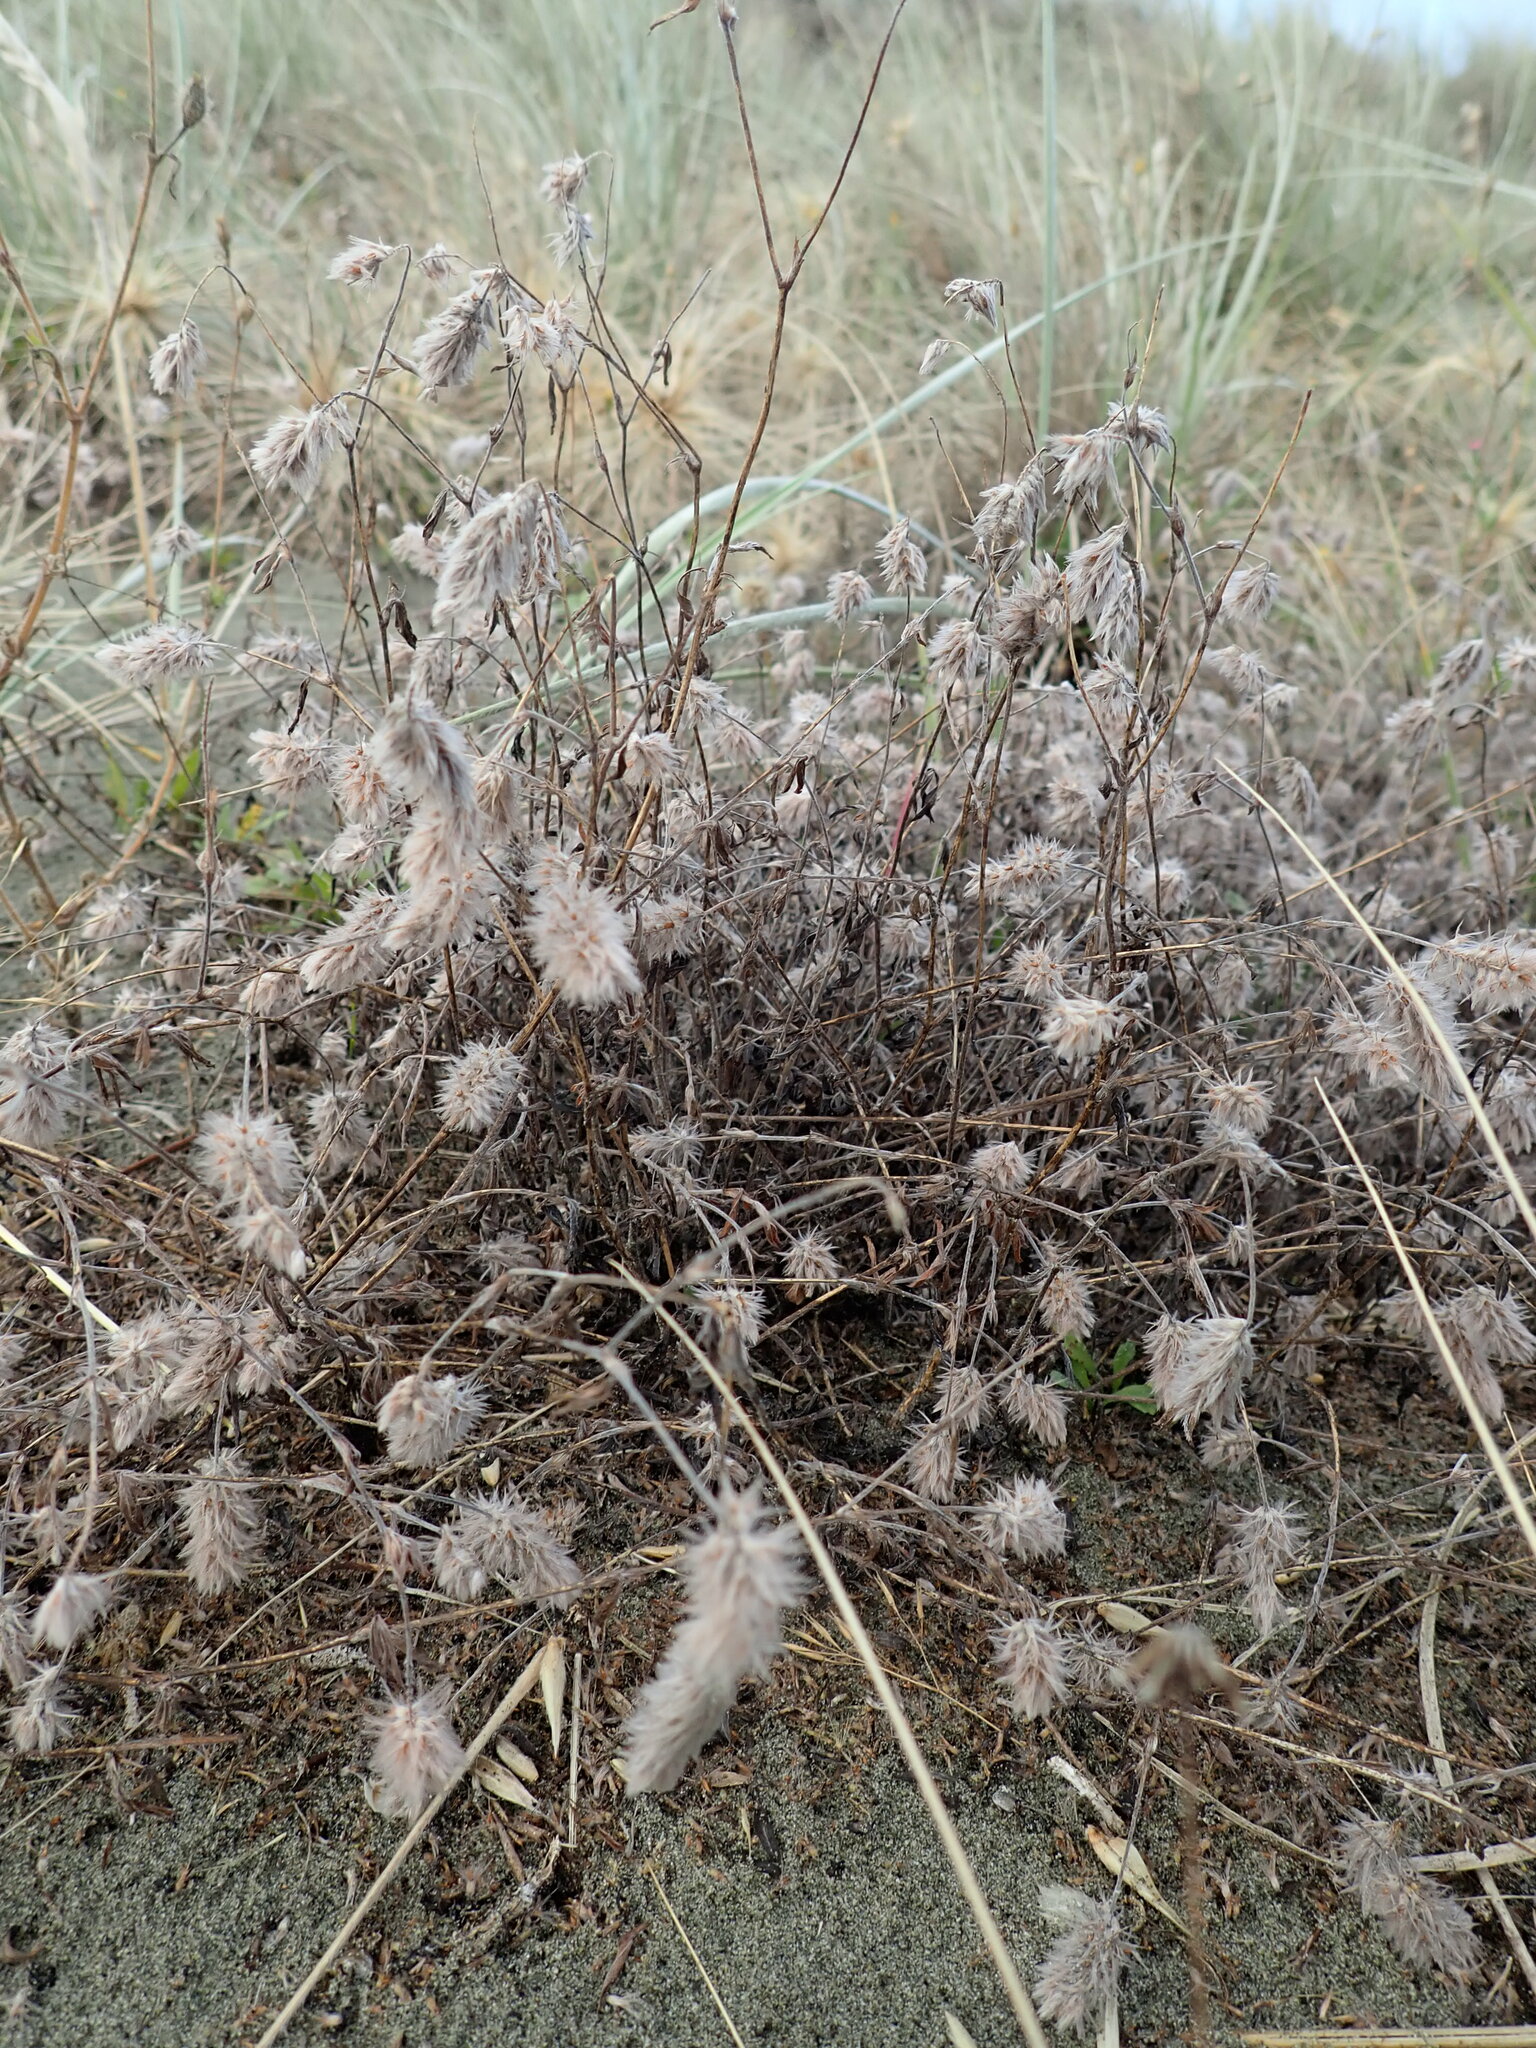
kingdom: Plantae
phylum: Tracheophyta
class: Magnoliopsida
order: Fabales
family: Fabaceae
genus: Trifolium
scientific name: Trifolium arvense
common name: Hare's-foot clover
